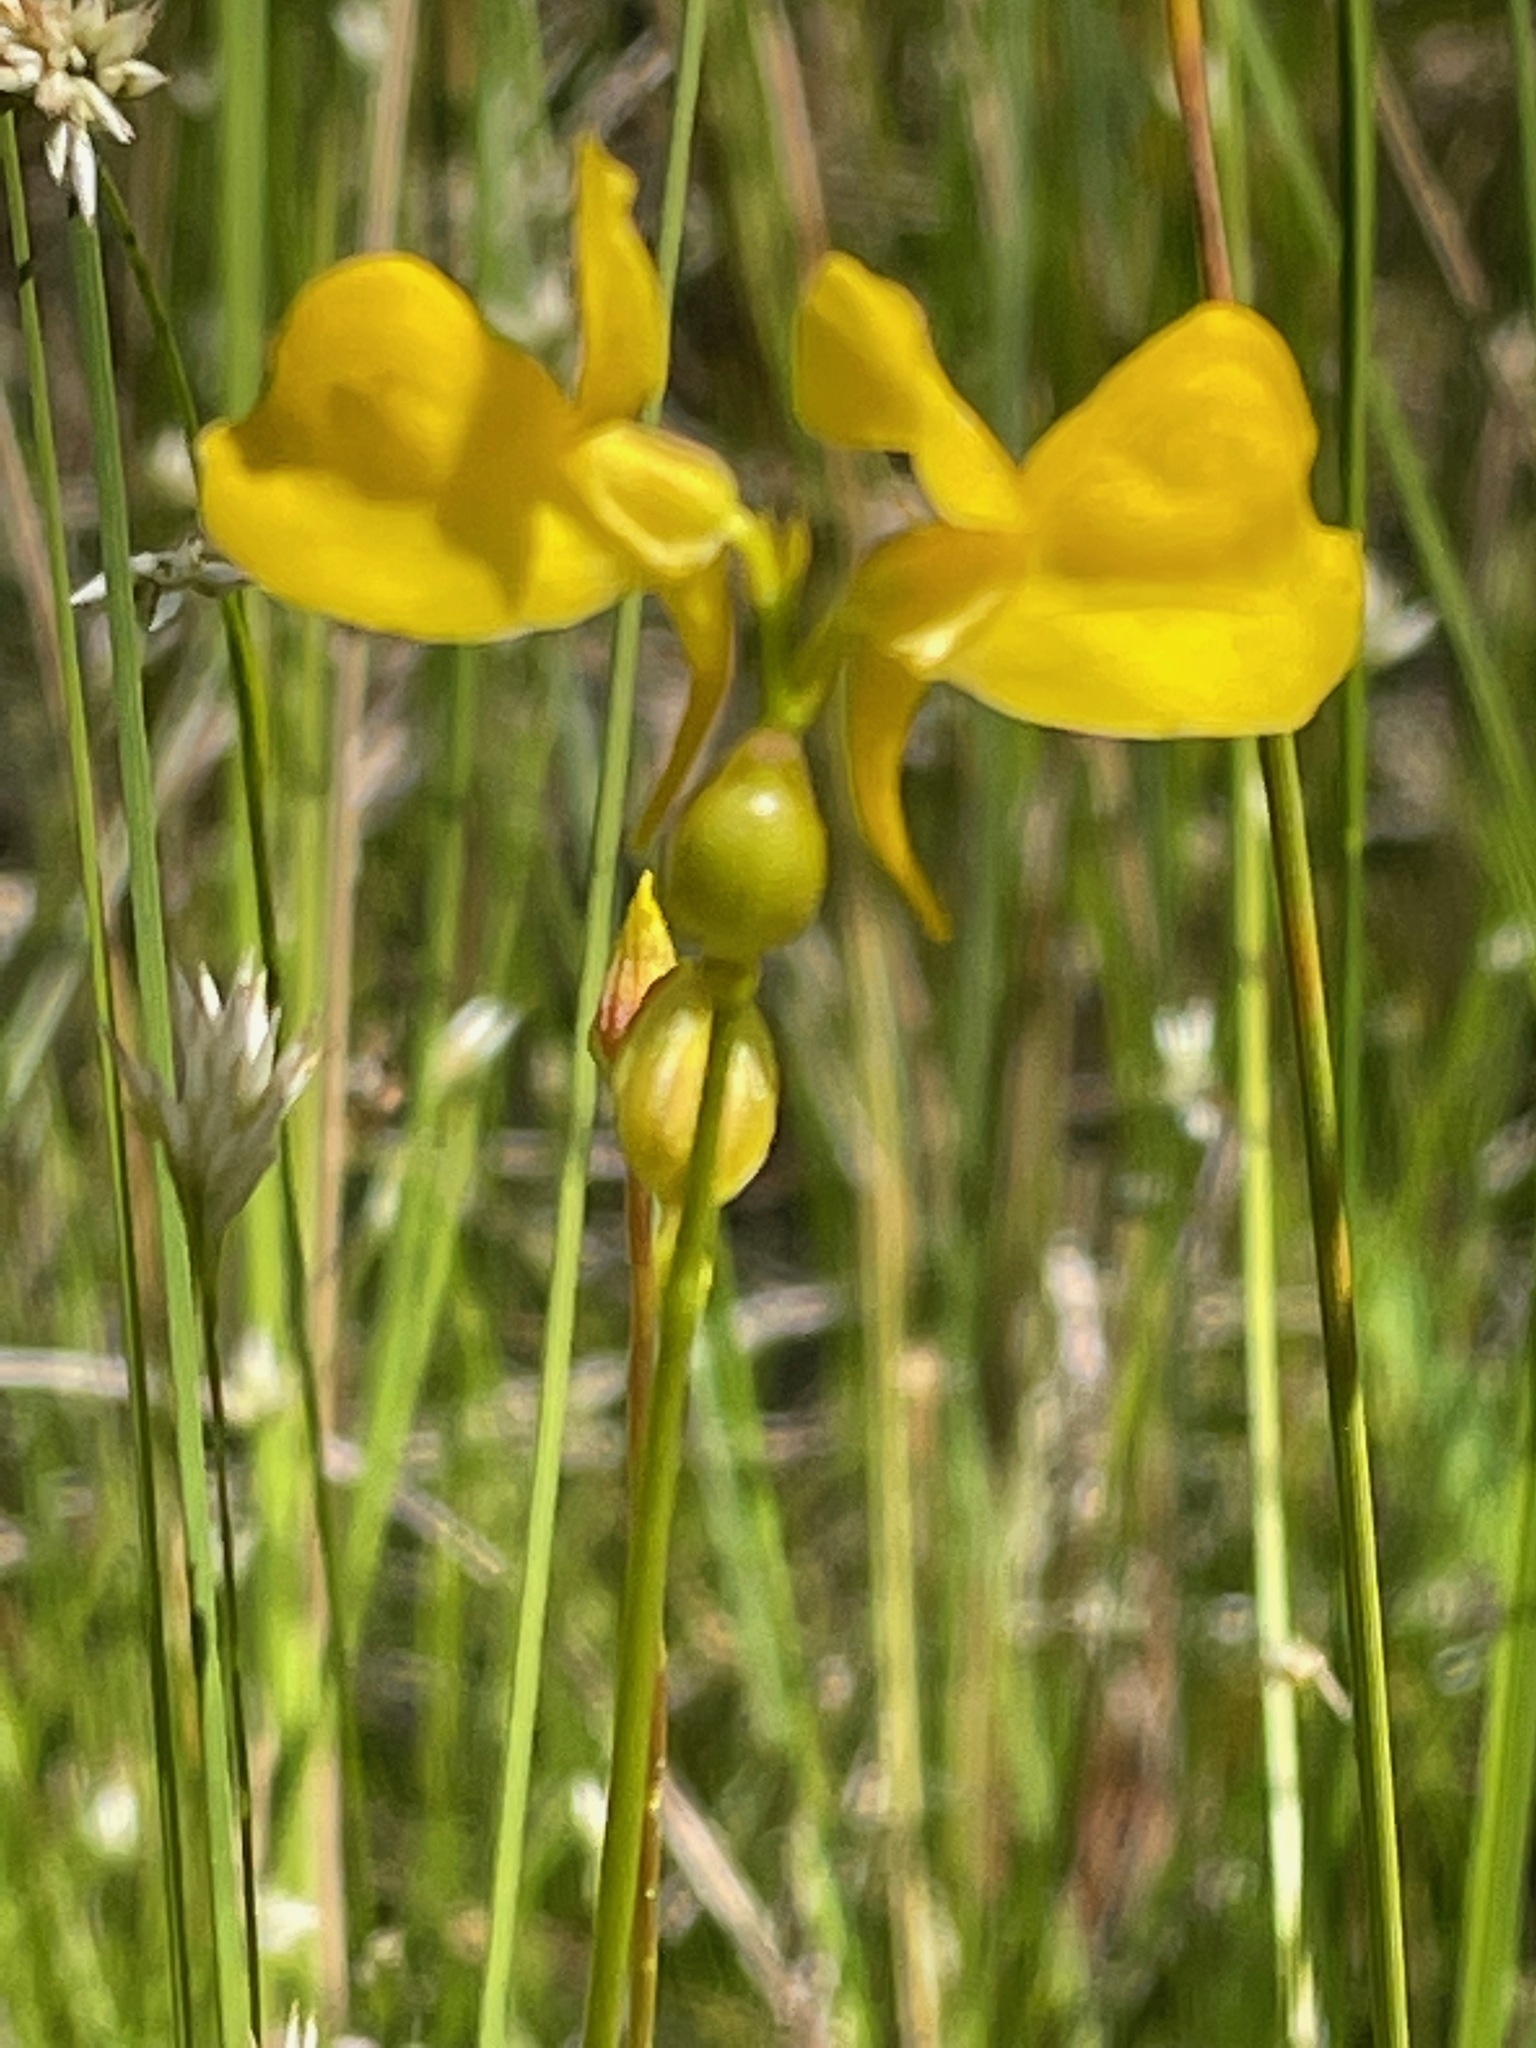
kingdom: Plantae
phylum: Tracheophyta
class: Magnoliopsida
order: Lamiales
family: Lentibulariaceae
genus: Utricularia
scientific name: Utricularia cornuta
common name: Horned bladderwort
